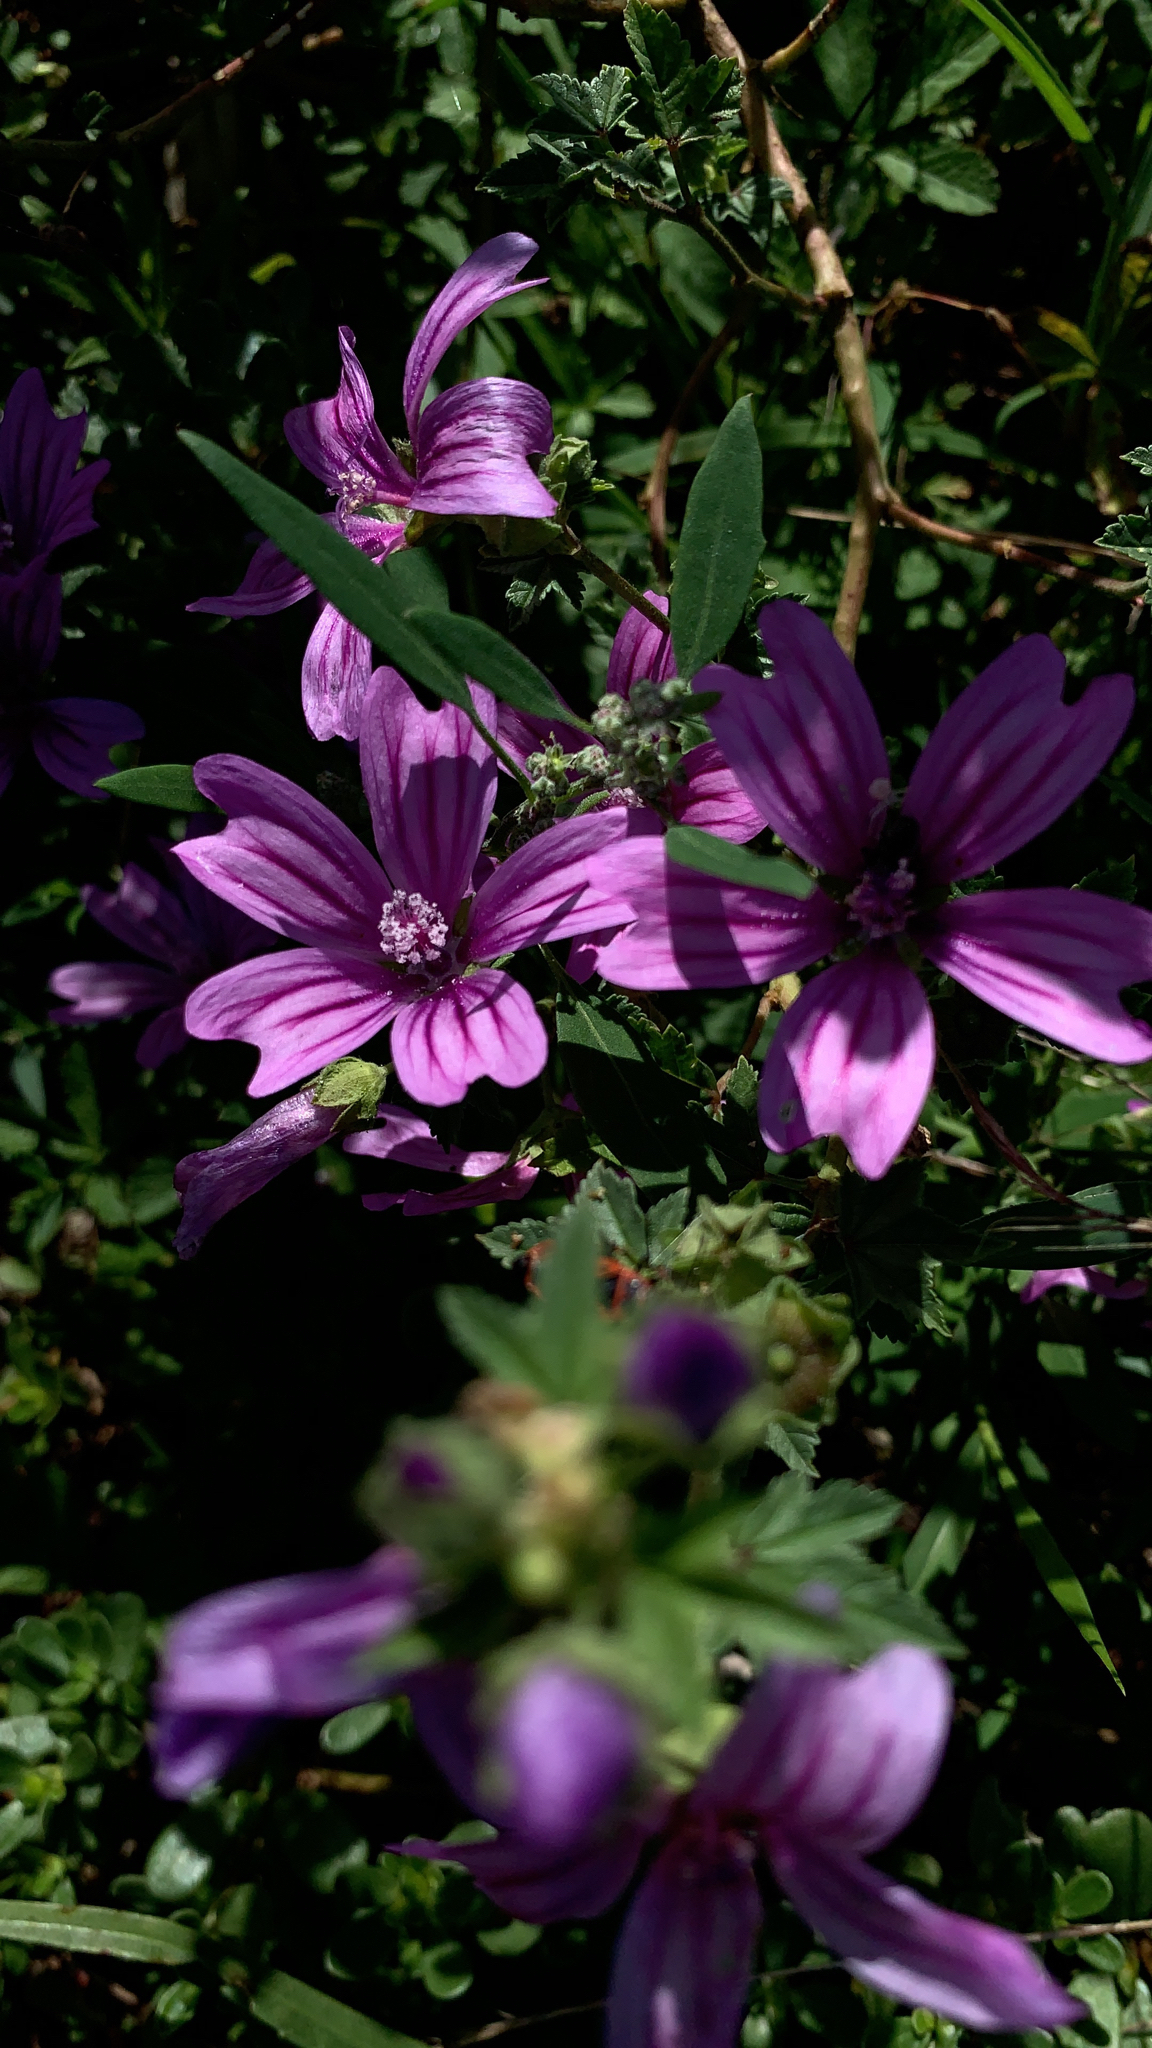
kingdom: Plantae
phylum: Tracheophyta
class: Magnoliopsida
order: Malvales
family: Malvaceae
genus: Malva
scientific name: Malva sylvestris
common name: Common mallow
